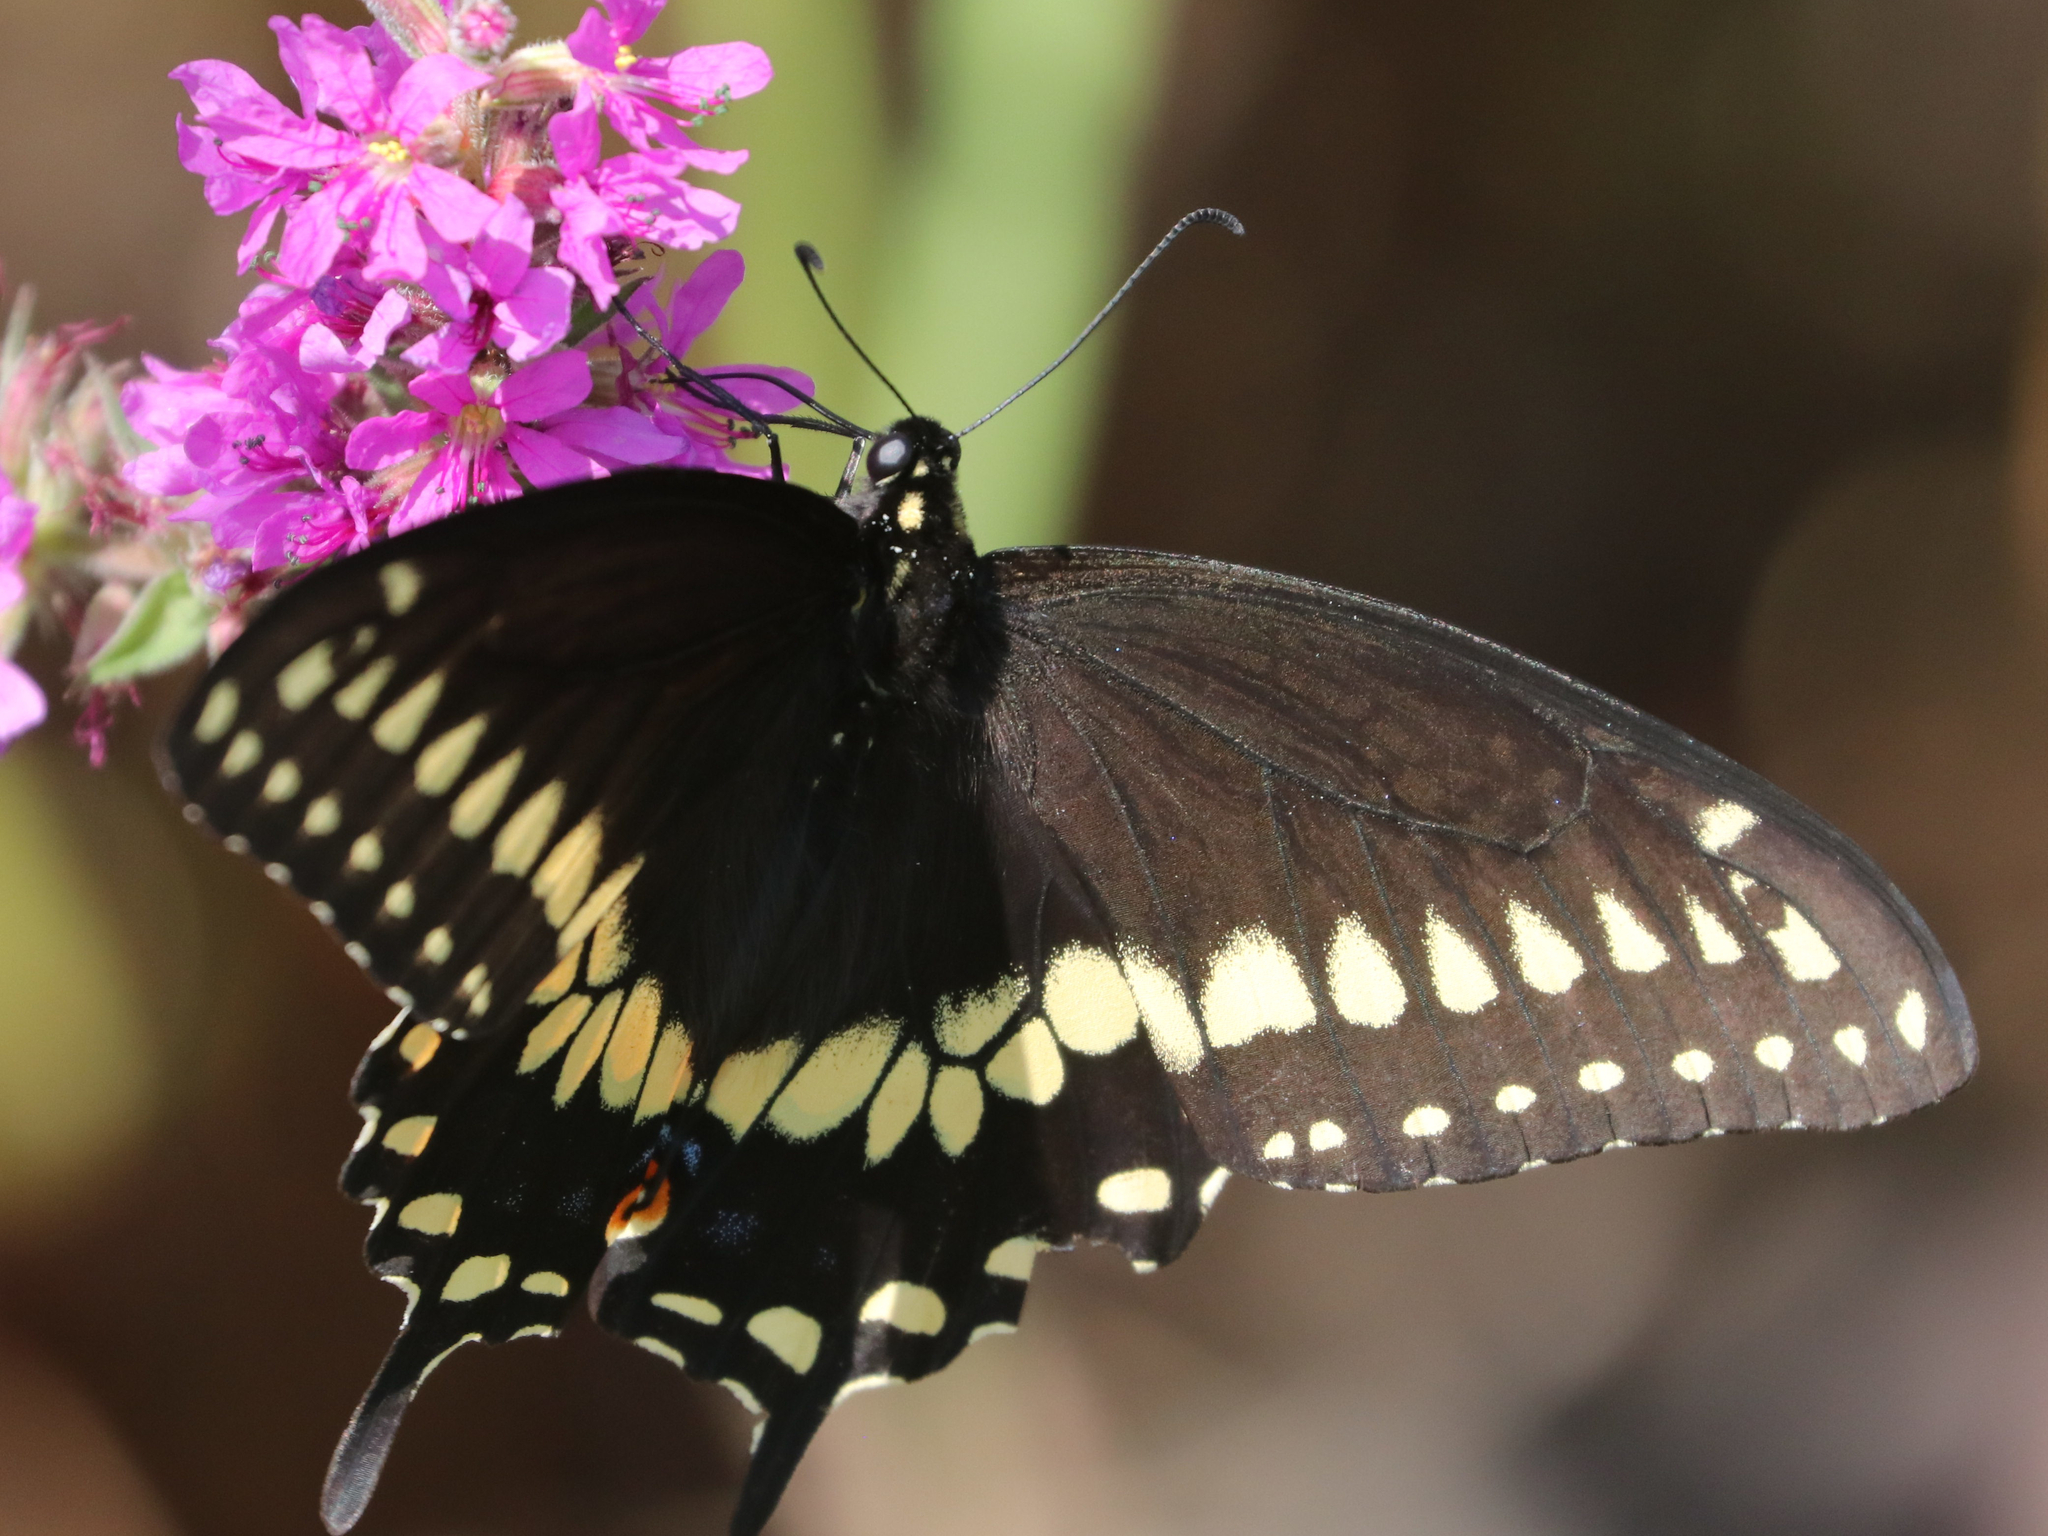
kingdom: Animalia
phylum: Arthropoda
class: Insecta
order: Lepidoptera
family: Papilionidae
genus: Papilio
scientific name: Papilio polyxenes
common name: Black swallowtail
